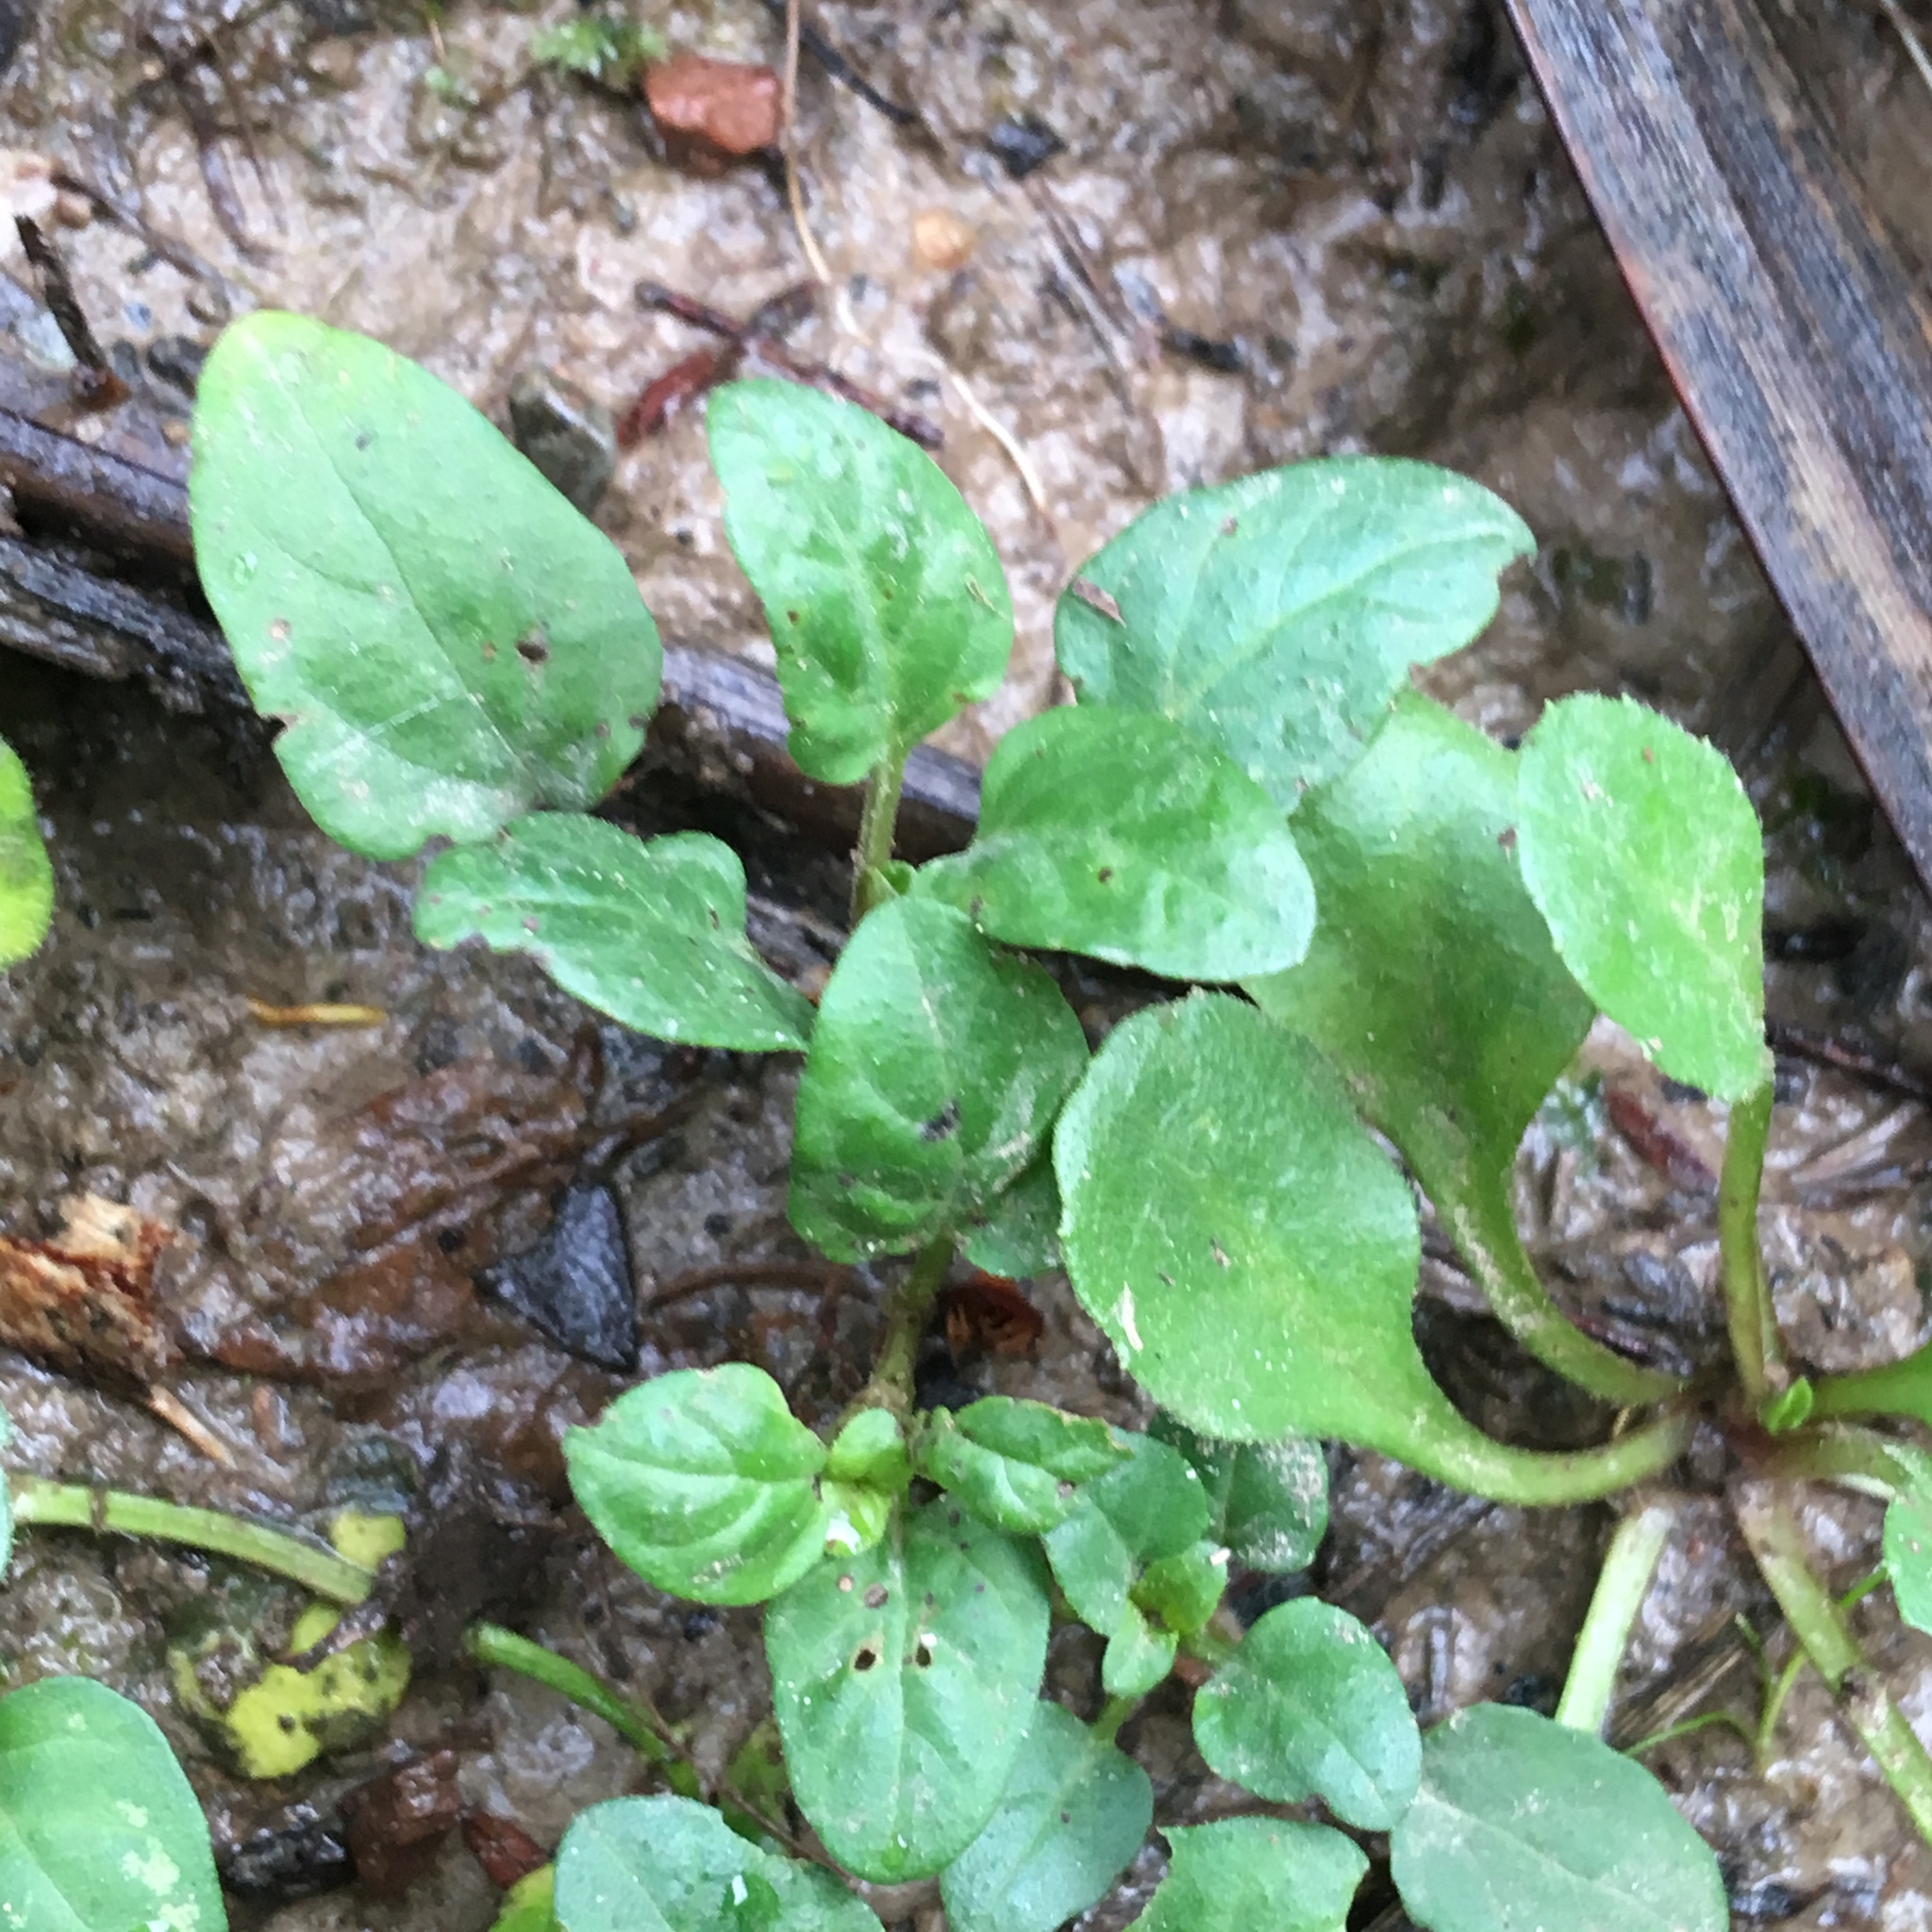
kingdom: Plantae
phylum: Tracheophyta
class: Magnoliopsida
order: Lamiales
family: Lamiaceae
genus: Prunella
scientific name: Prunella vulgaris
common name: Heal-all
